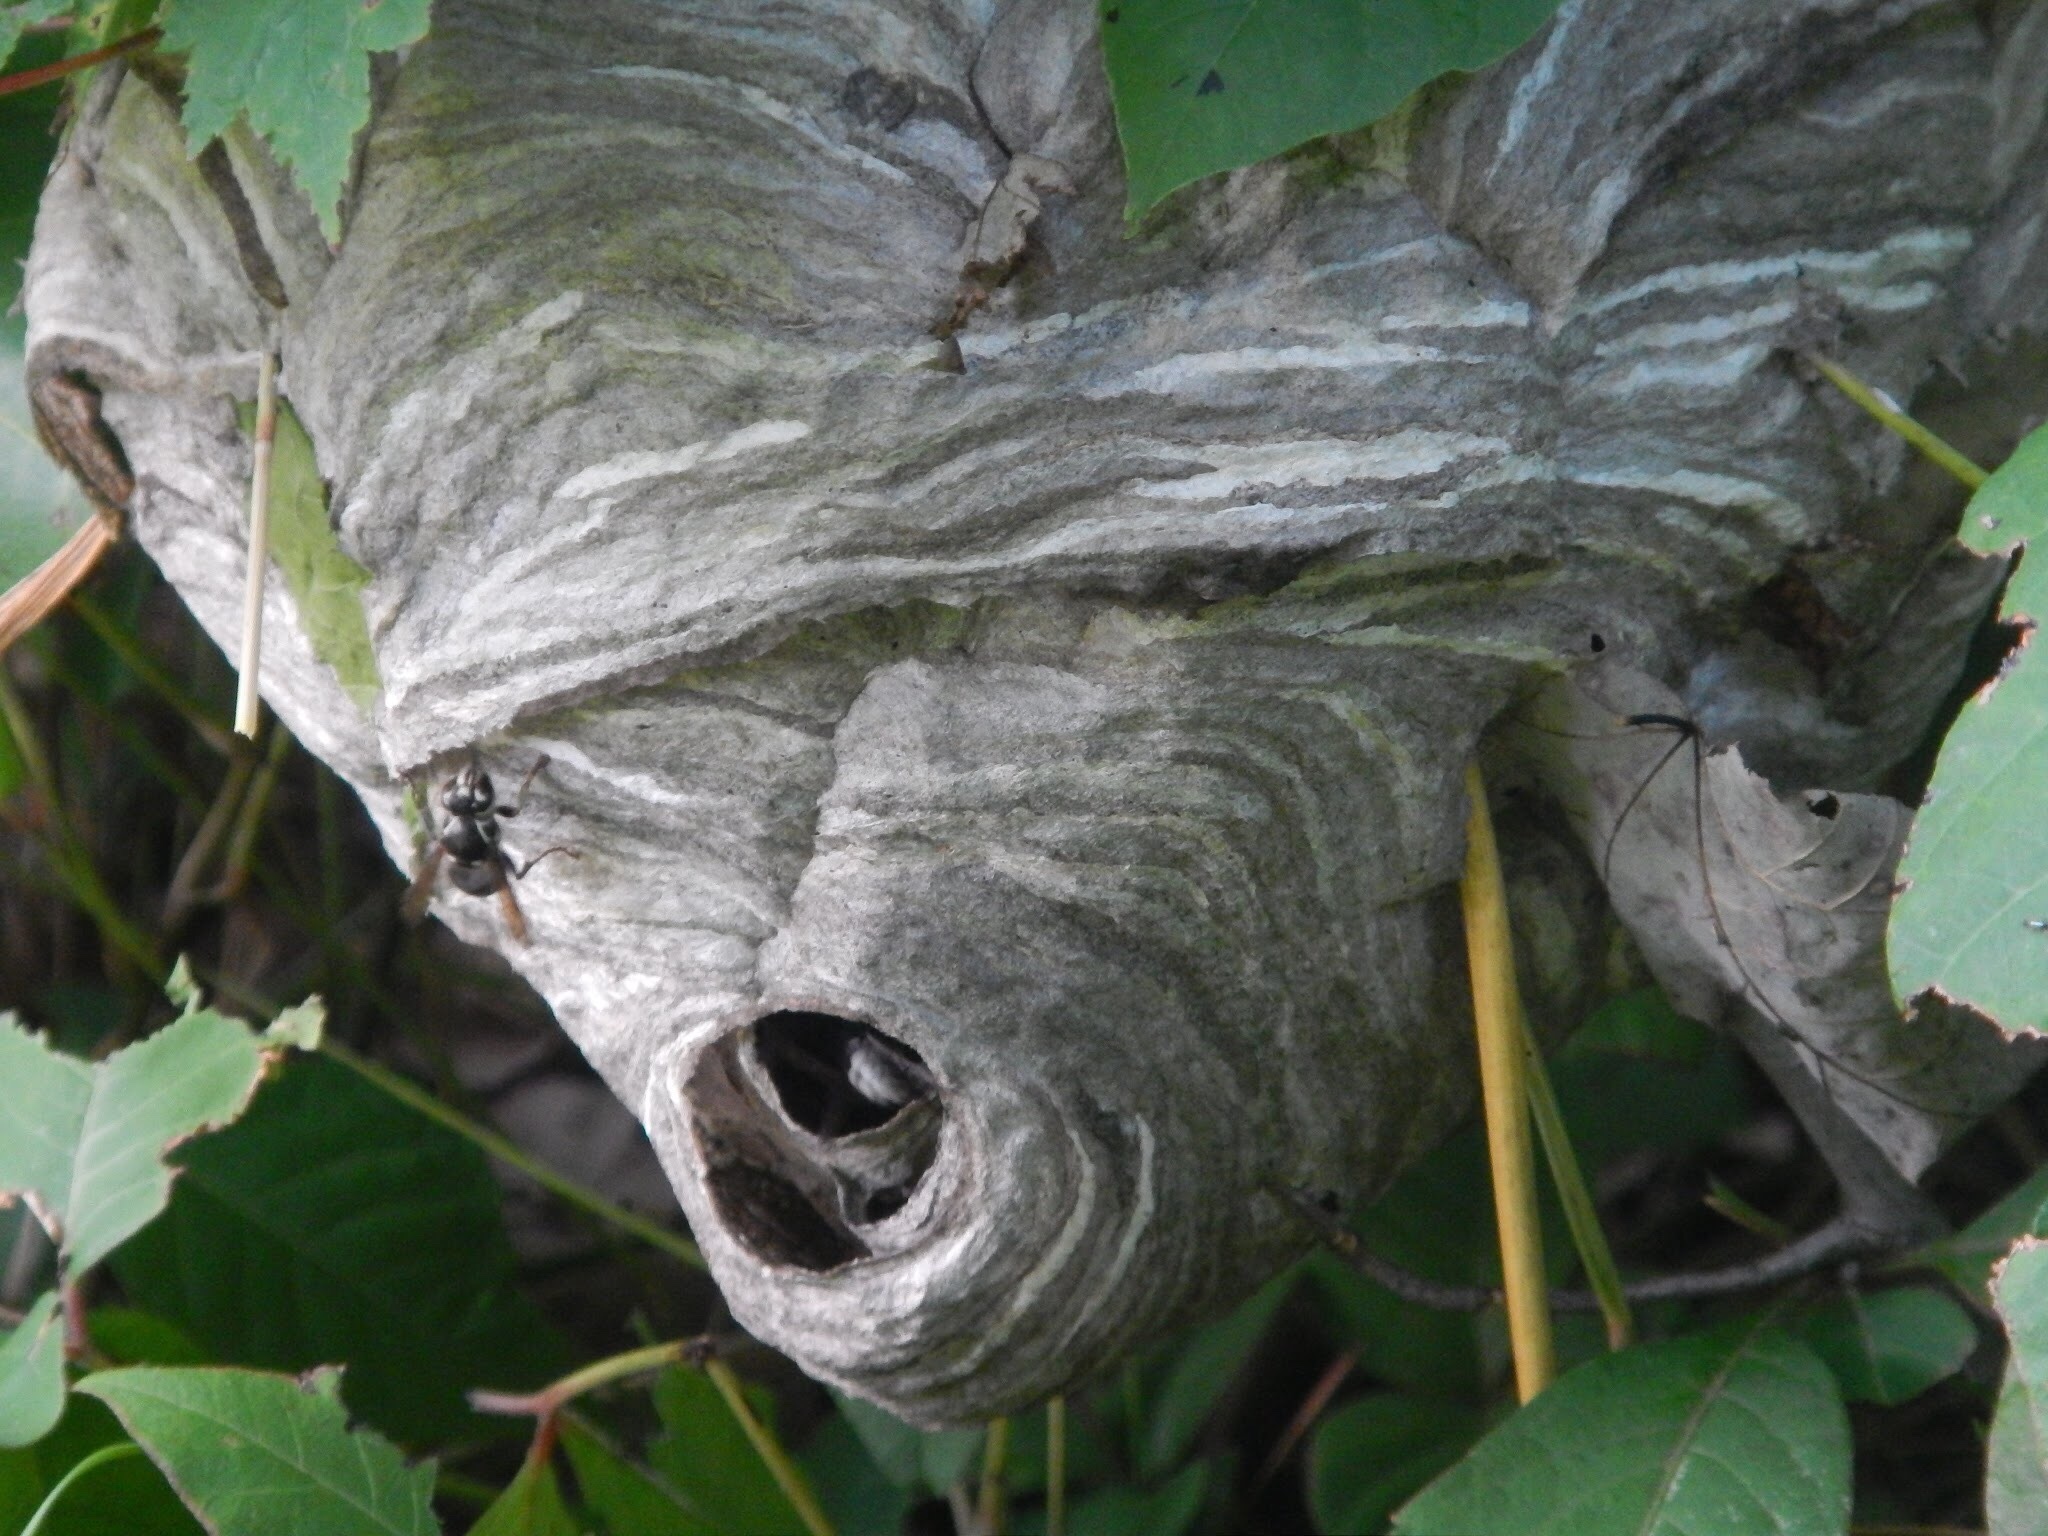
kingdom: Animalia
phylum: Arthropoda
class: Insecta
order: Hymenoptera
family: Vespidae
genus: Dolichovespula
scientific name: Dolichovespula maculata
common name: Bald-faced hornet
